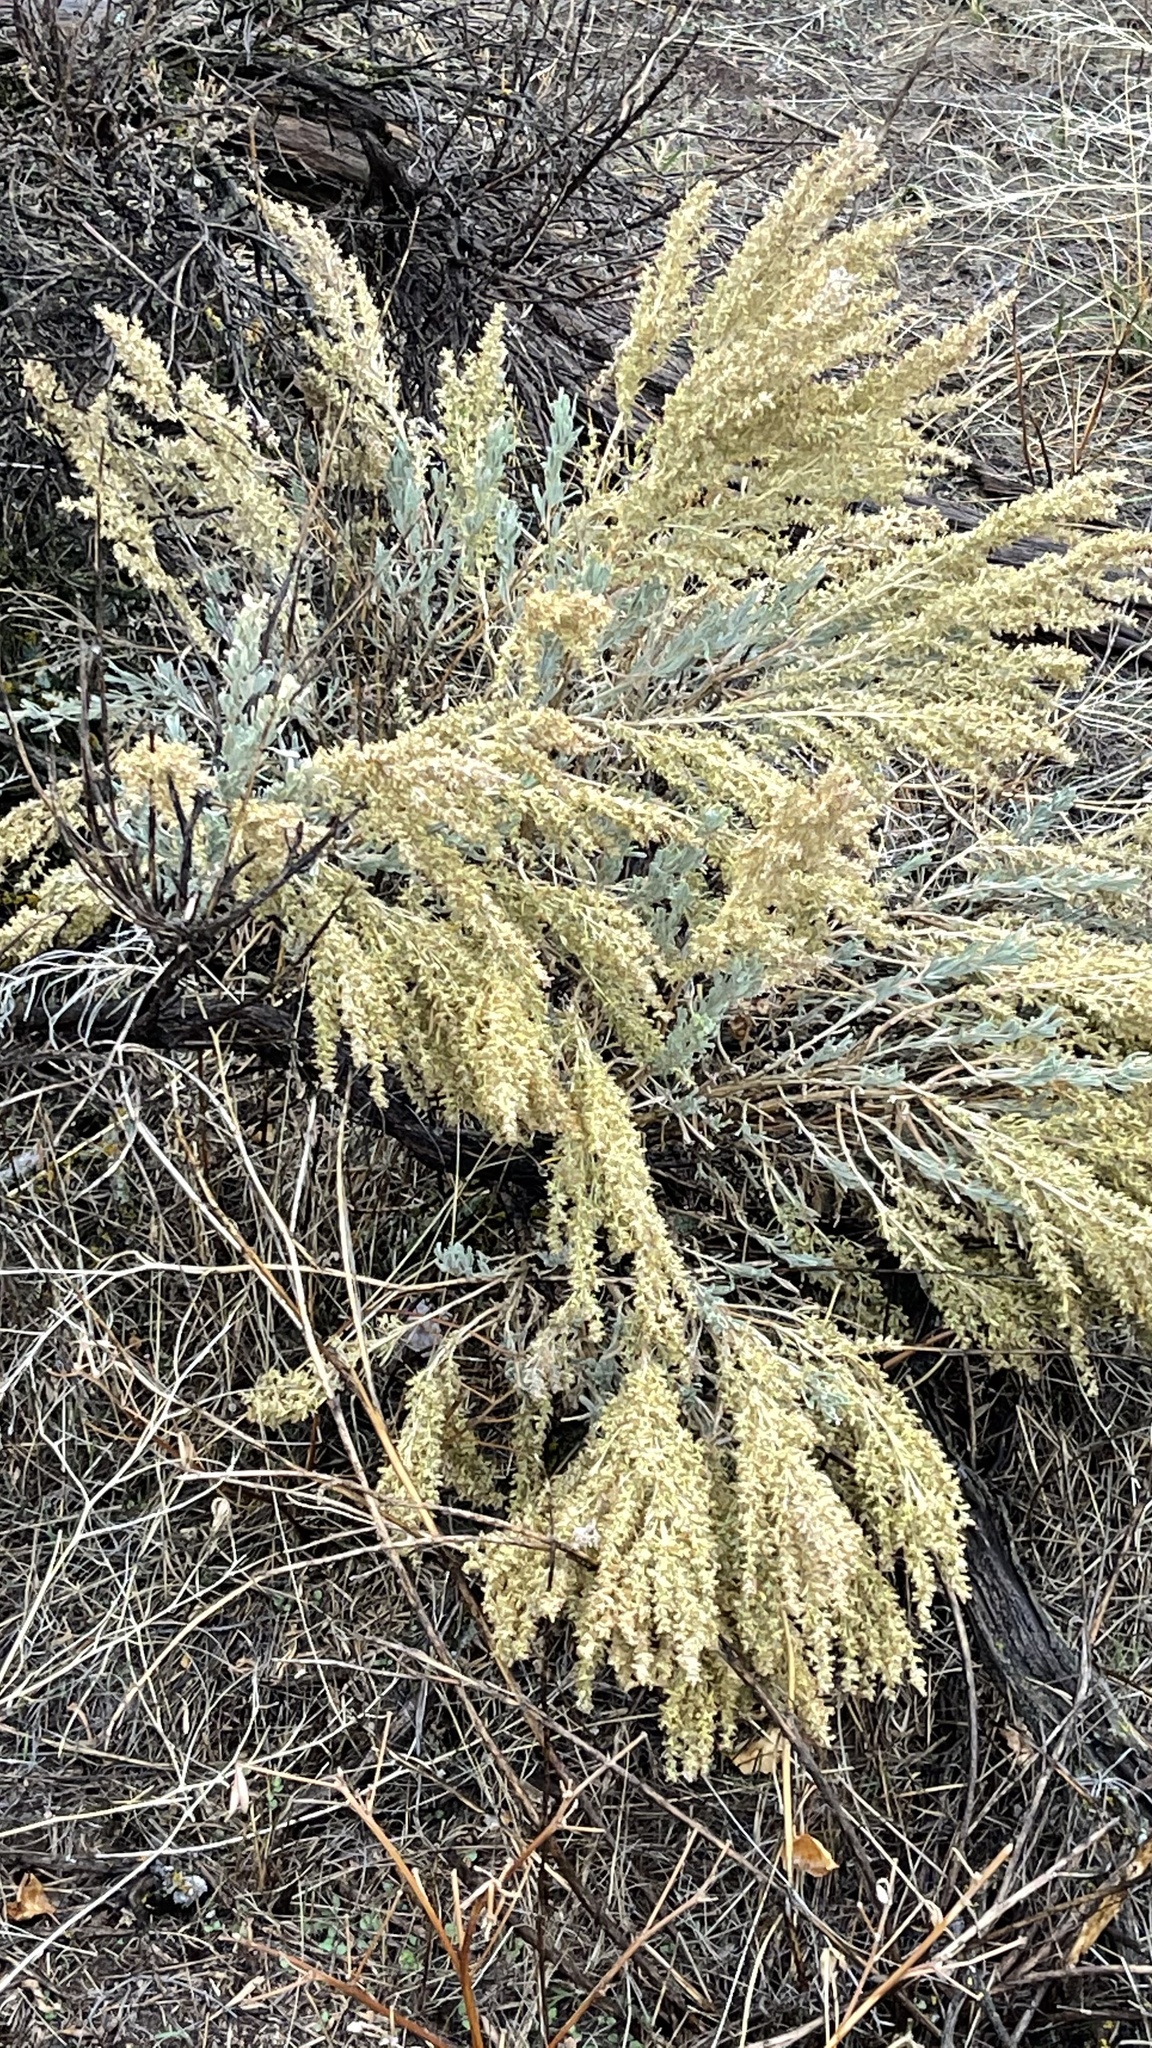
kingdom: Plantae
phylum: Tracheophyta
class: Magnoliopsida
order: Asterales
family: Asteraceae
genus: Artemisia
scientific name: Artemisia tridentata
